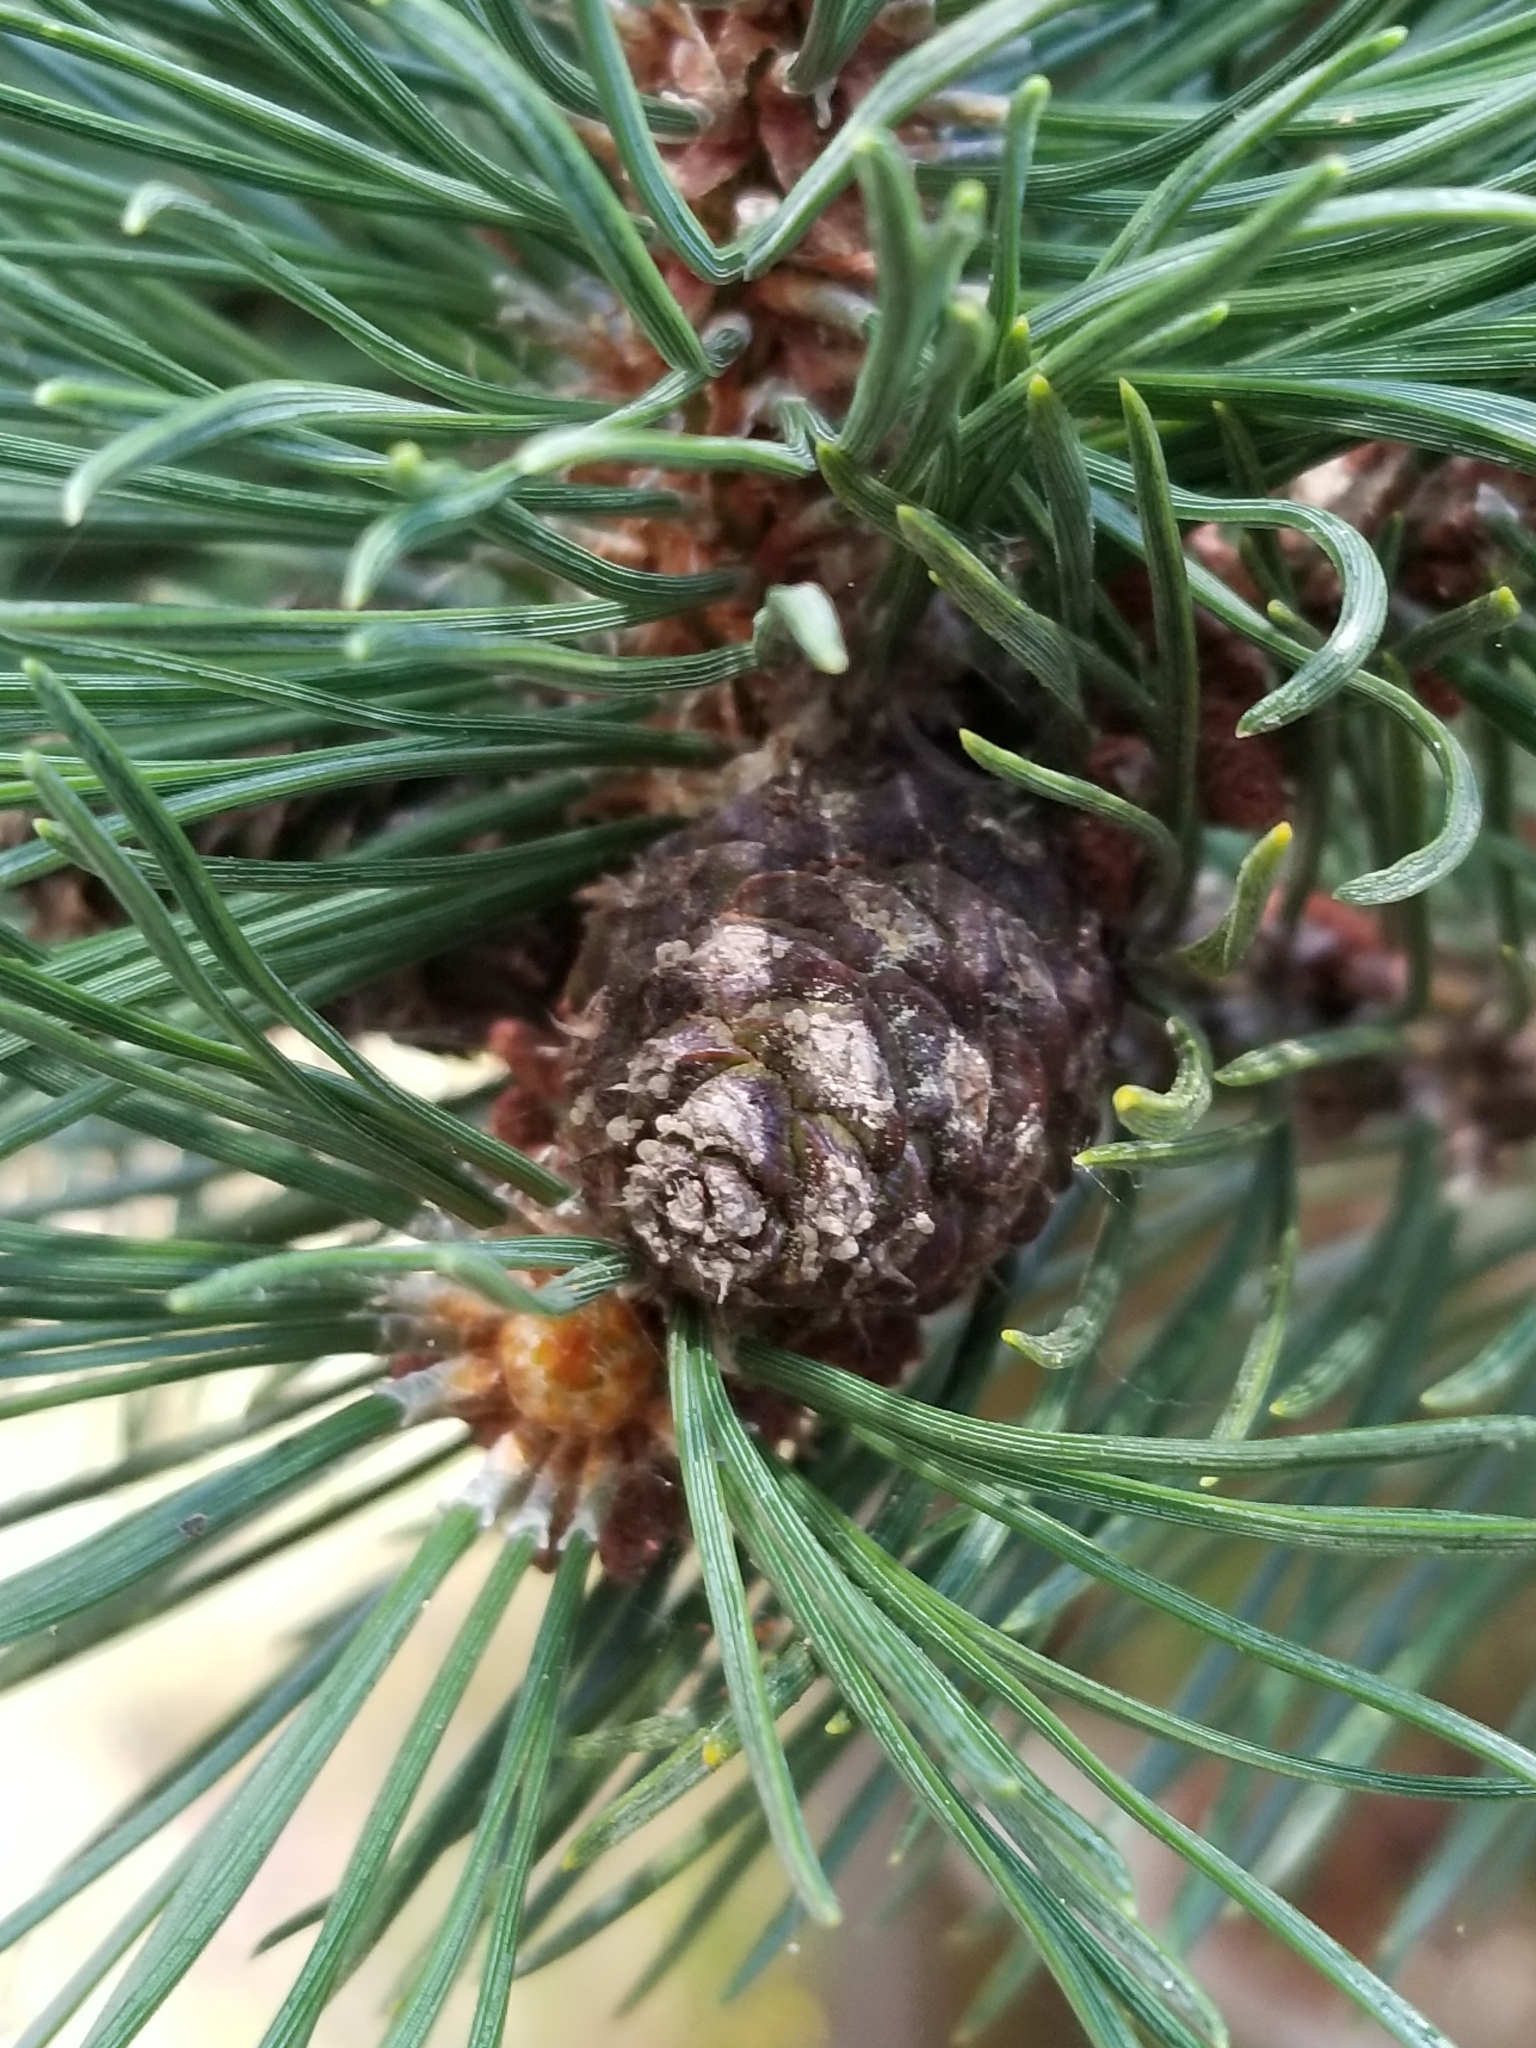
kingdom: Plantae
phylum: Tracheophyta
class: Pinopsida
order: Pinales
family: Pinaceae
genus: Pinus
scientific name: Pinus contorta
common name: Lodgepole pine
